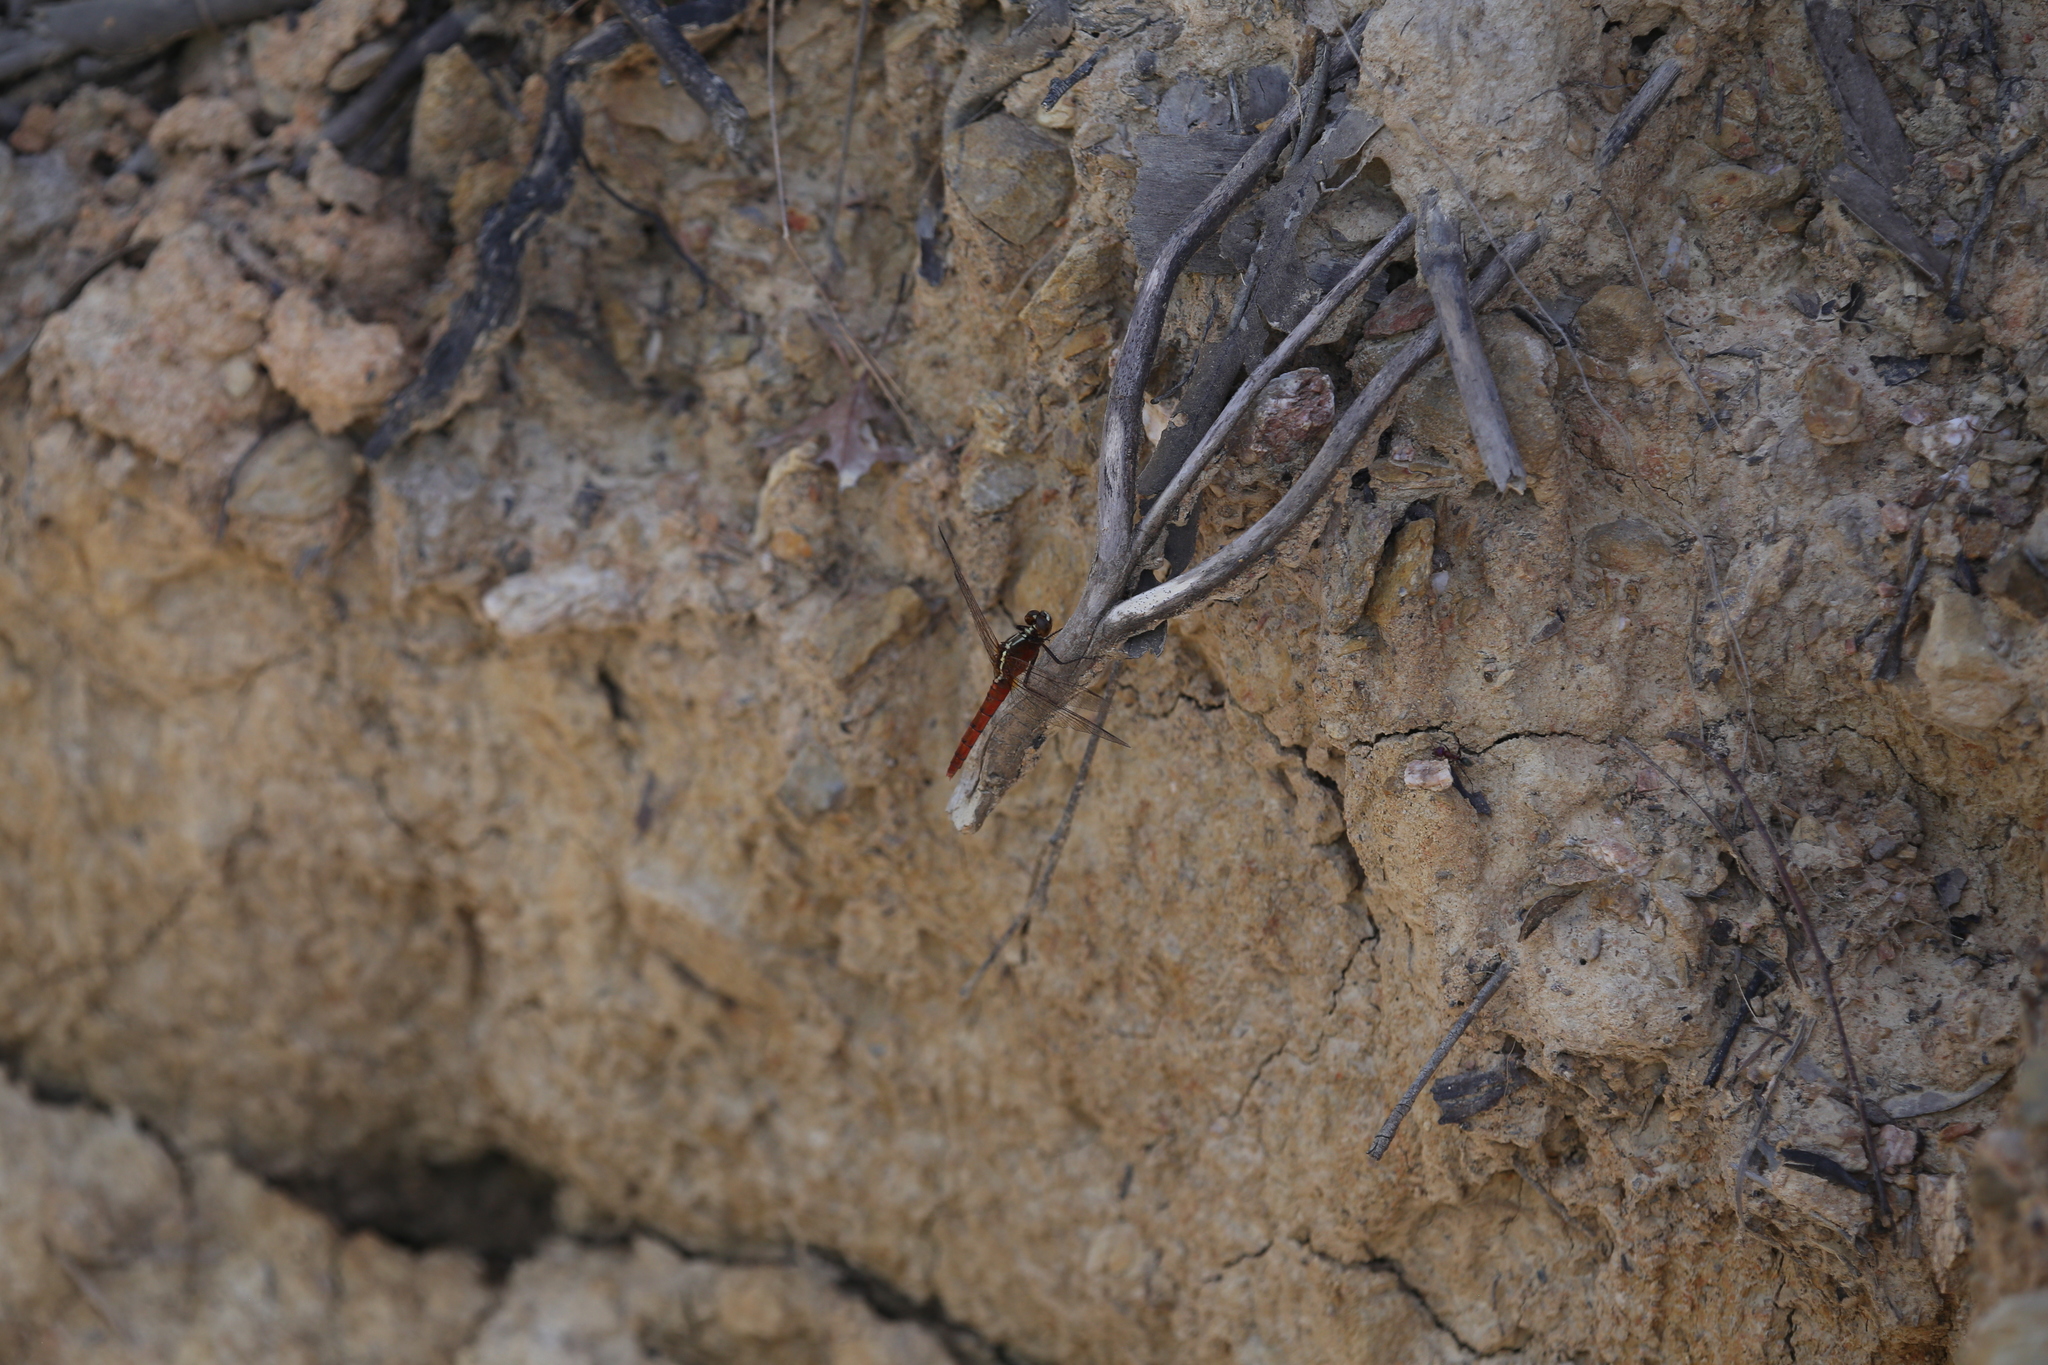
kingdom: Animalia
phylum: Arthropoda
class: Insecta
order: Odonata
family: Libellulidae
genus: Rhodothemis
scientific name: Rhodothemis lieftincki
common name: Red arrow
